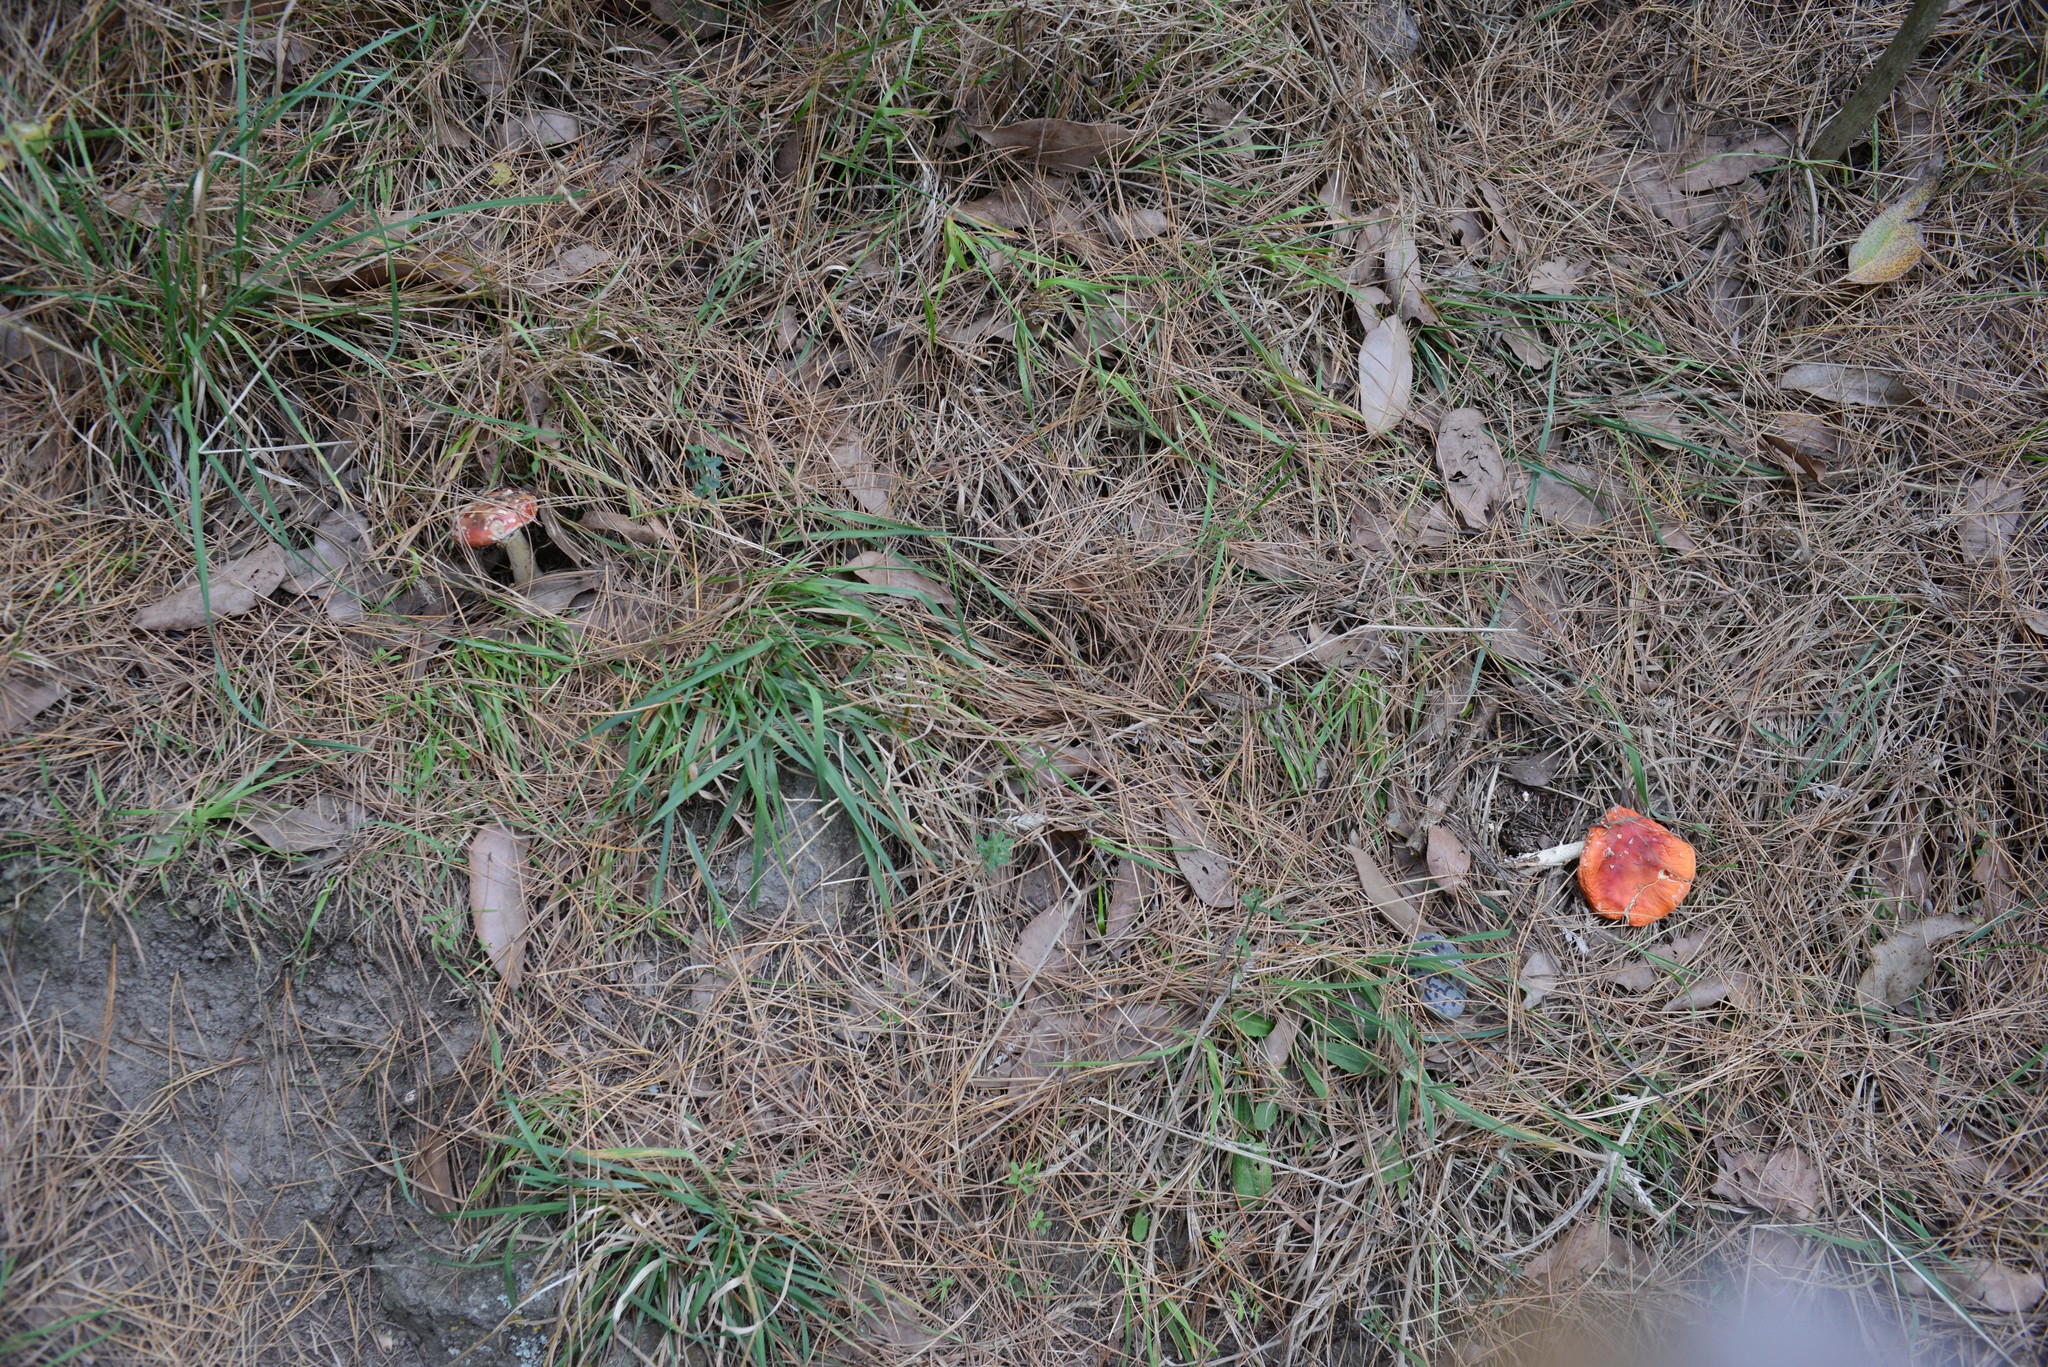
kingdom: Fungi
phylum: Basidiomycota
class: Agaricomycetes
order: Agaricales
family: Amanitaceae
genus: Amanita
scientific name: Amanita muscaria
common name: Fly agaric
